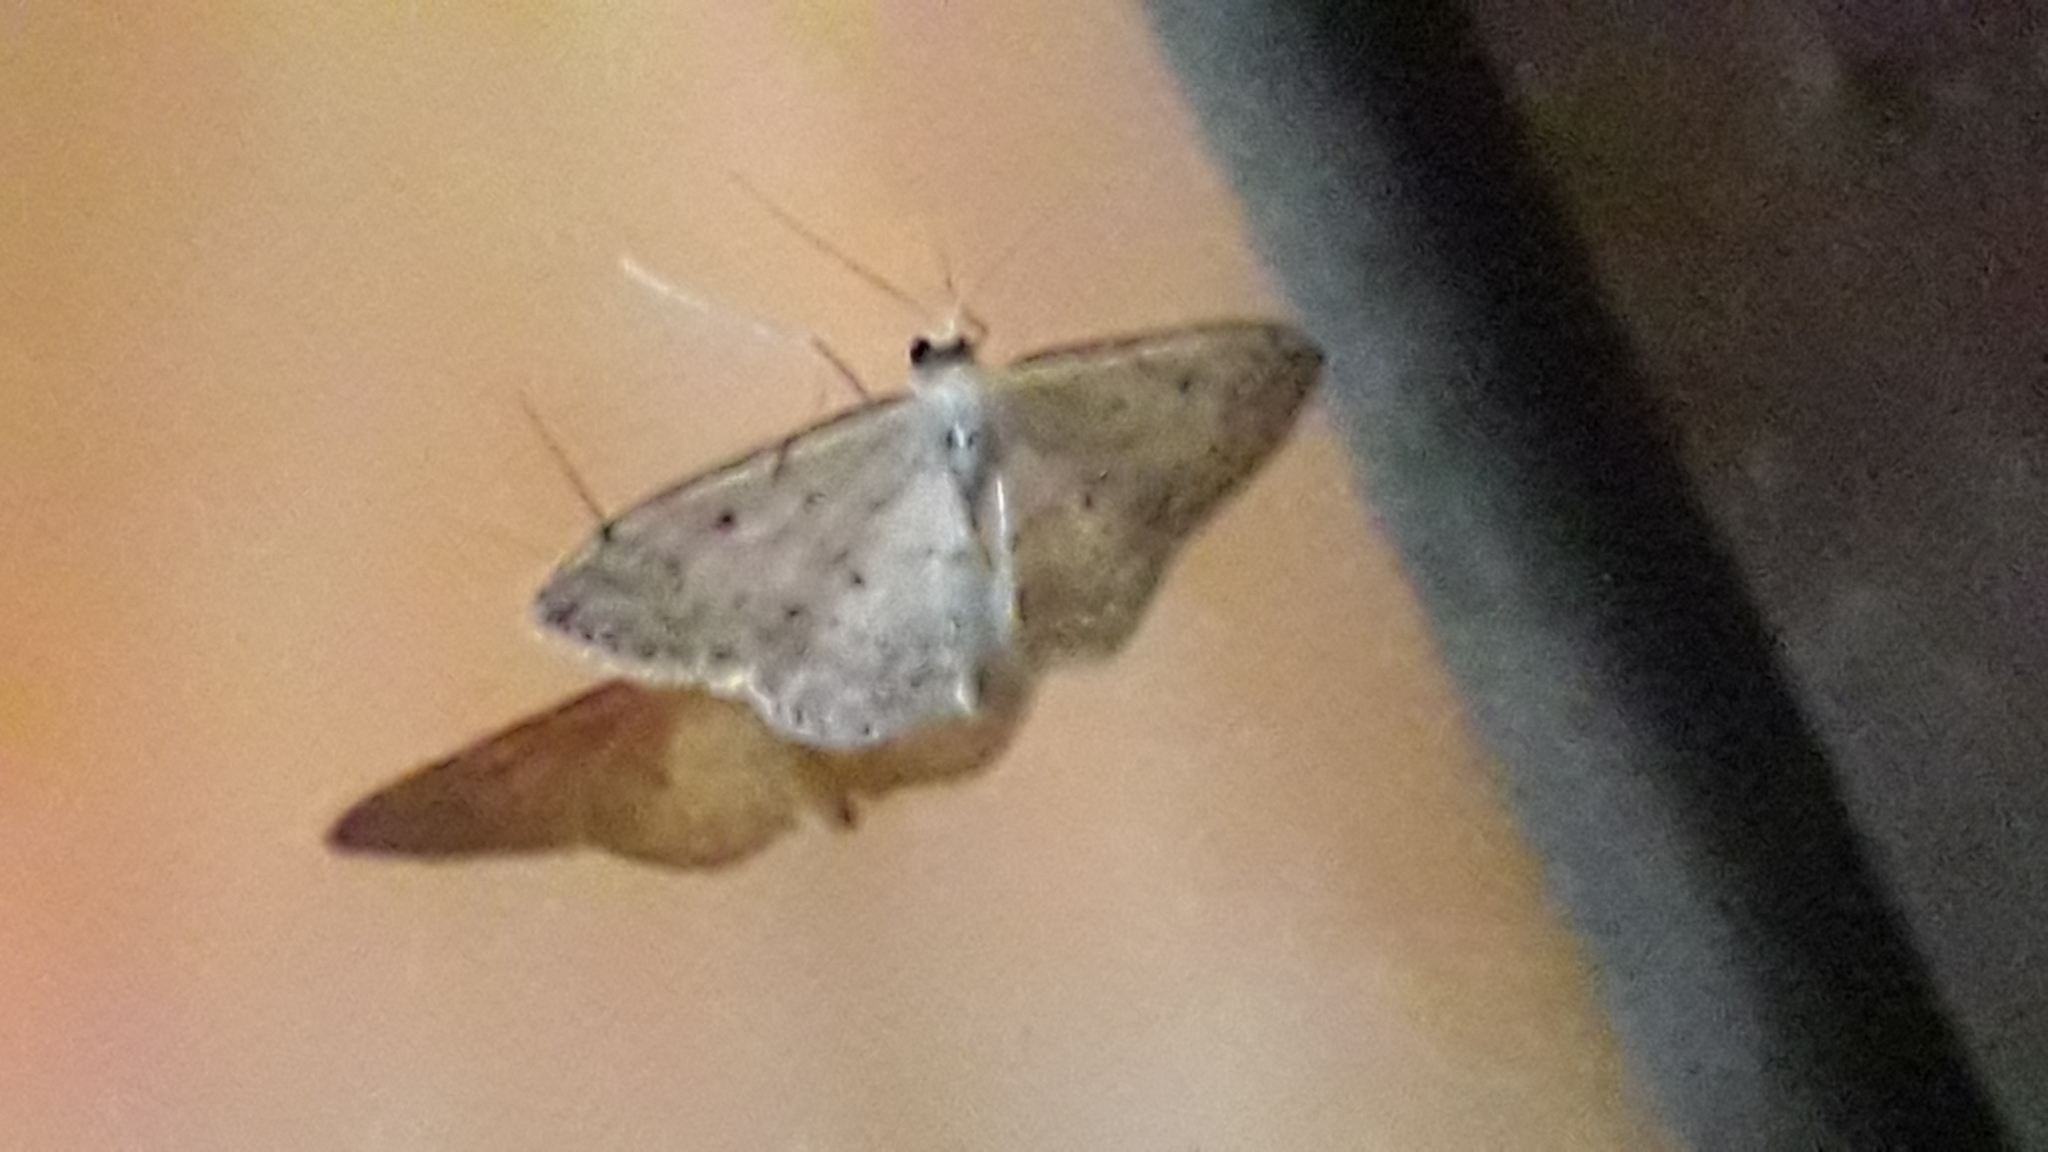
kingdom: Animalia
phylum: Arthropoda
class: Insecta
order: Lepidoptera
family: Geometridae
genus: Idaea
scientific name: Idaea seriata
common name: Small dusty wave
